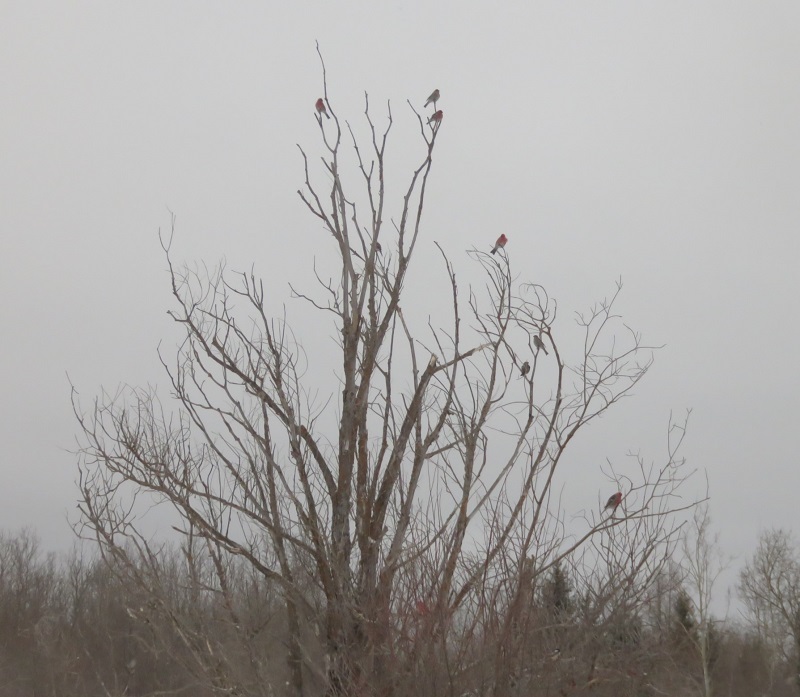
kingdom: Animalia
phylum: Chordata
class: Aves
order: Passeriformes
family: Fringillidae
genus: Pinicola
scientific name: Pinicola enucleator
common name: Pine grosbeak
